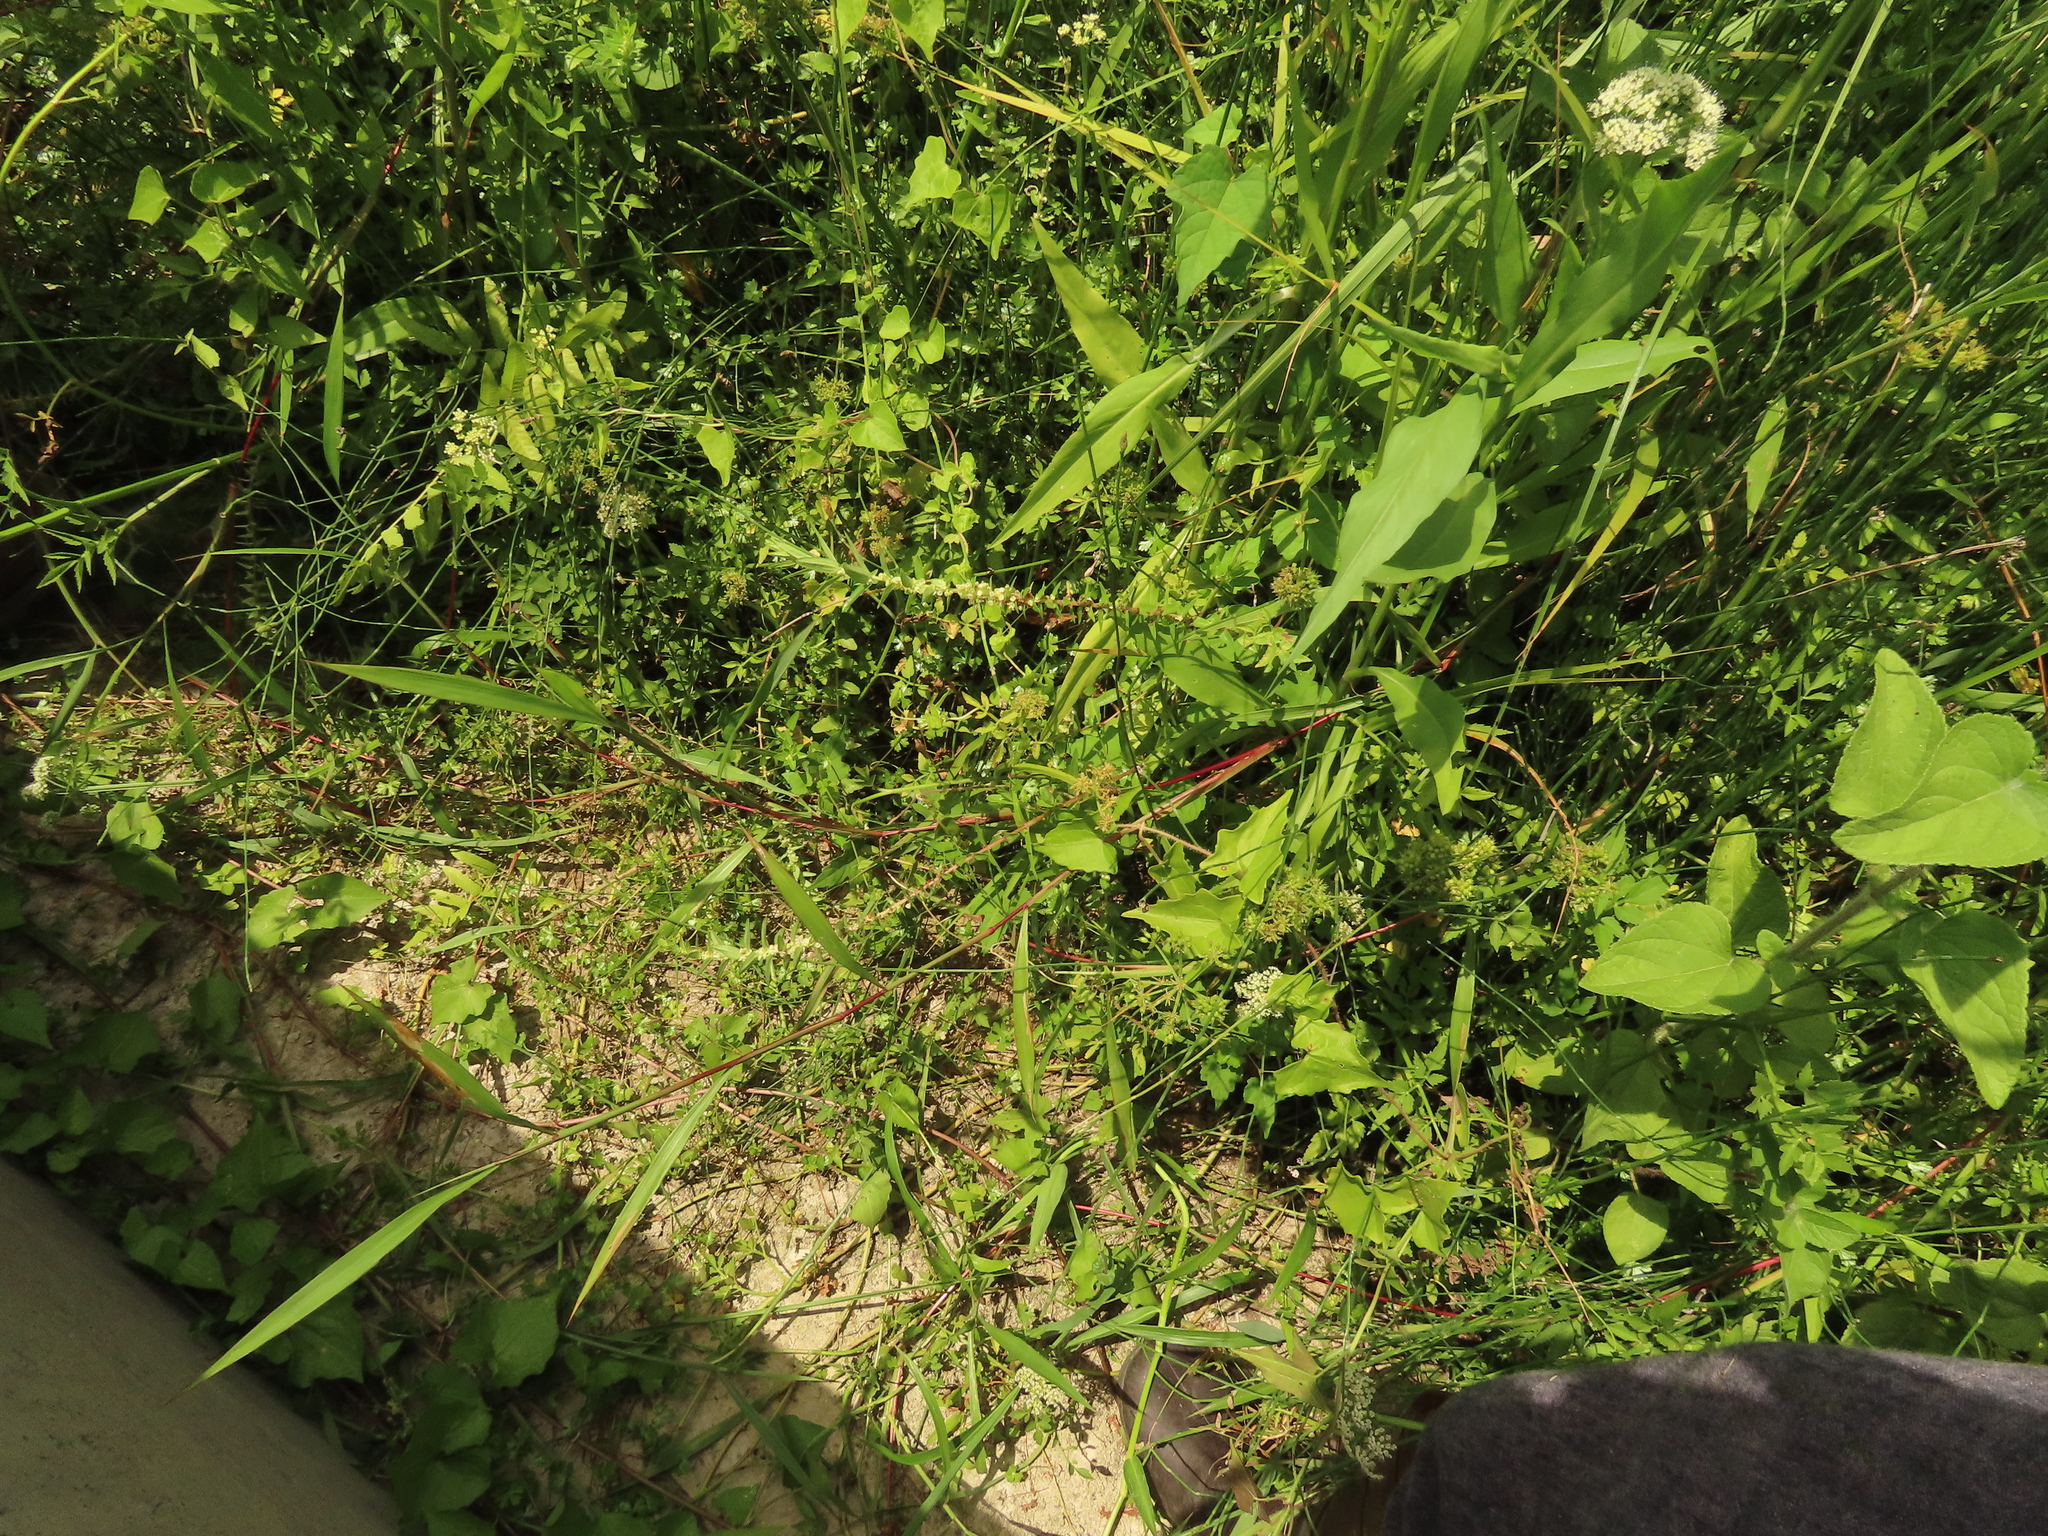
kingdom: Plantae
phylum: Tracheophyta
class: Magnoliopsida
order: Rosales
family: Urticaceae
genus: Gonostegia
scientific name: Gonostegia pentandra
